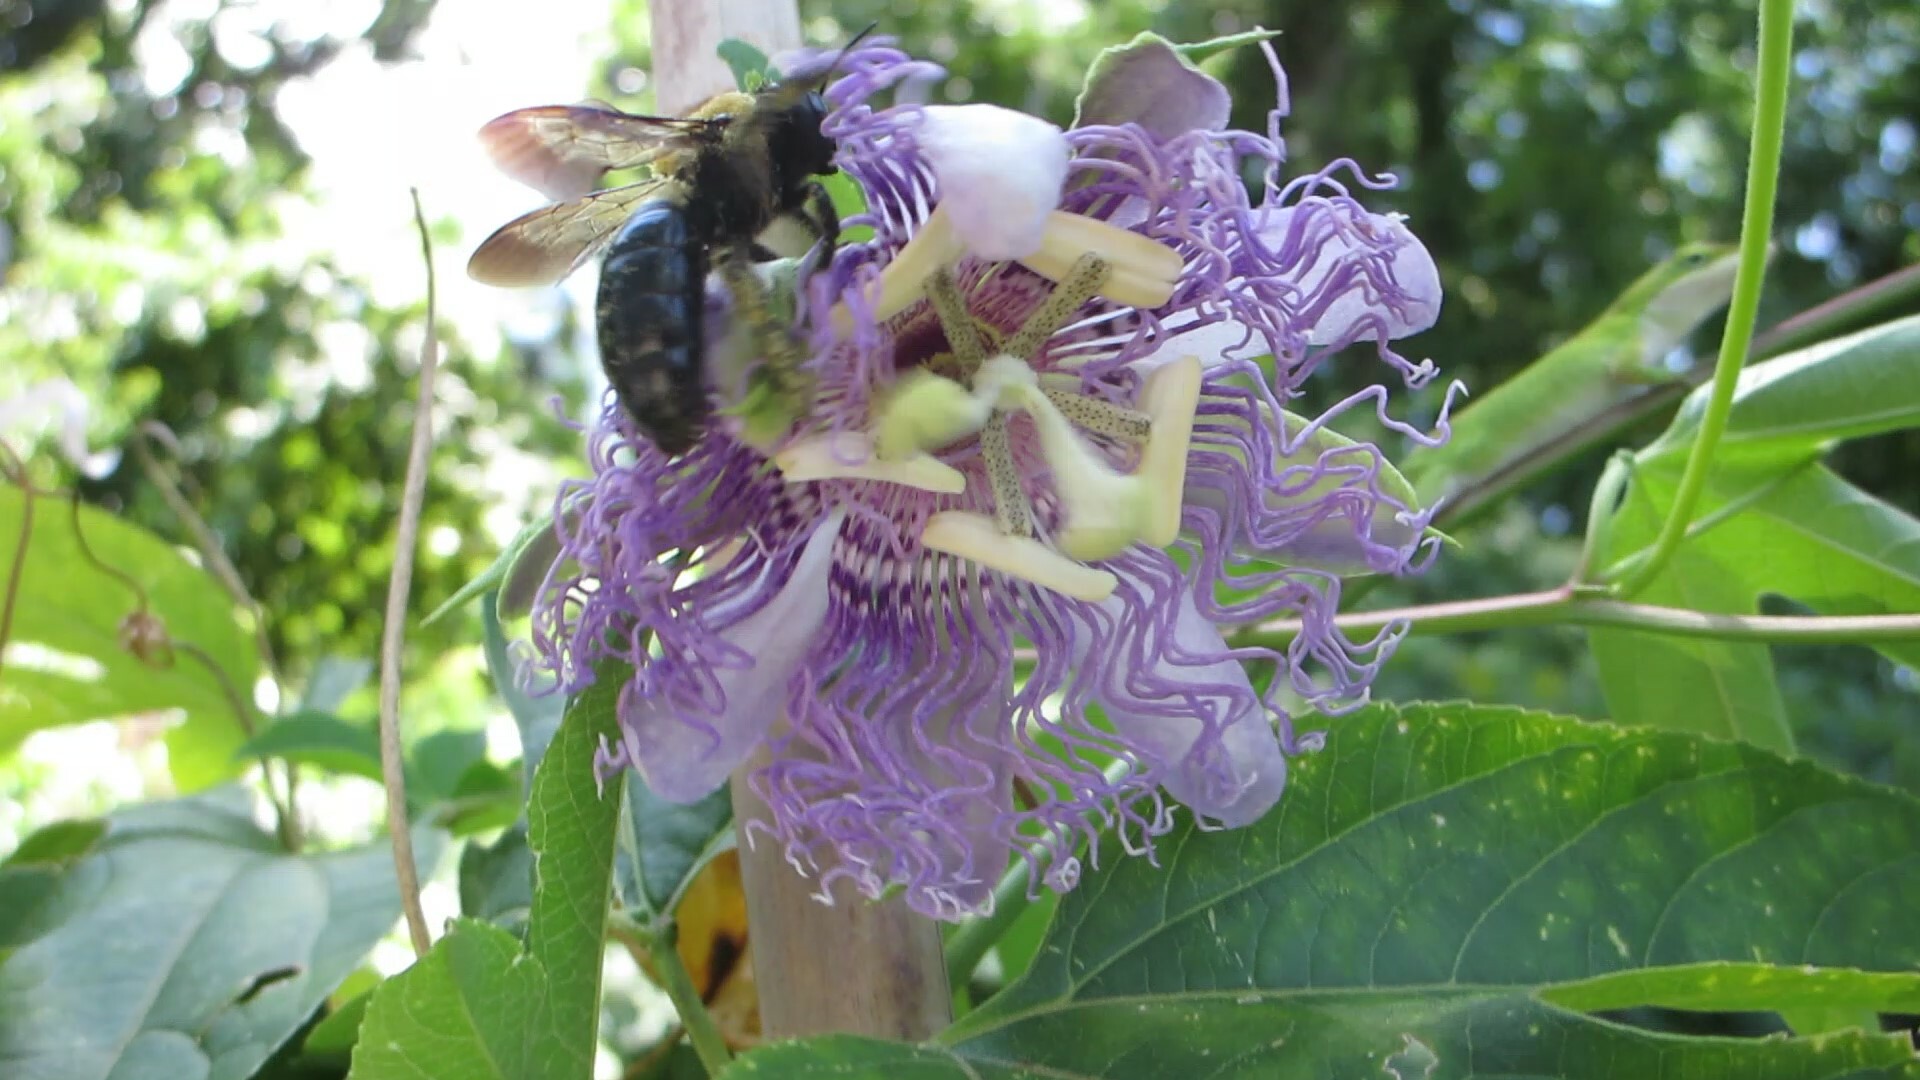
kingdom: Animalia
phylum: Arthropoda
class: Insecta
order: Hymenoptera
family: Apidae
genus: Xylocopa
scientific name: Xylocopa virginica
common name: Carpenter bee
